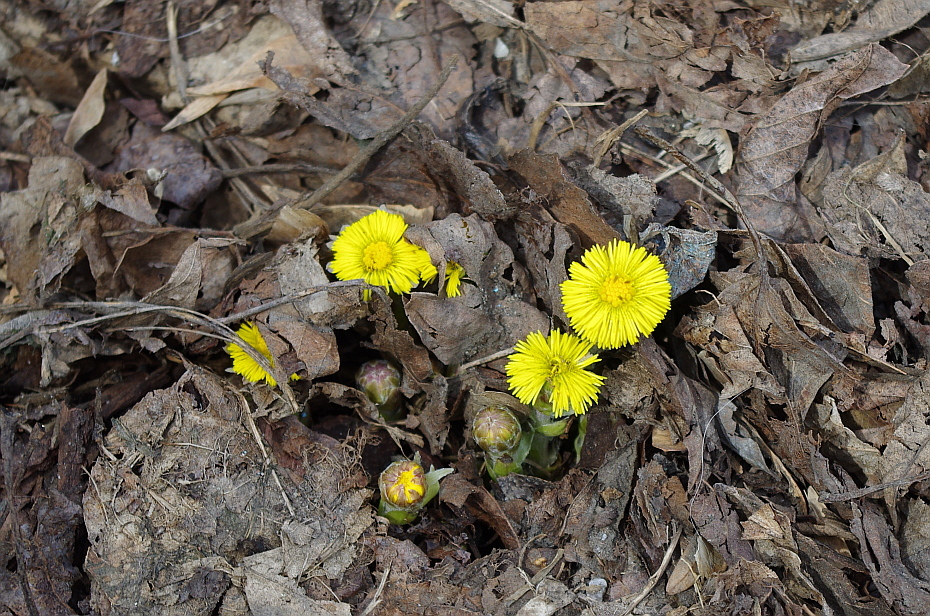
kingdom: Plantae
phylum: Tracheophyta
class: Magnoliopsida
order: Asterales
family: Asteraceae
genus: Tussilago
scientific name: Tussilago farfara
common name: Coltsfoot
